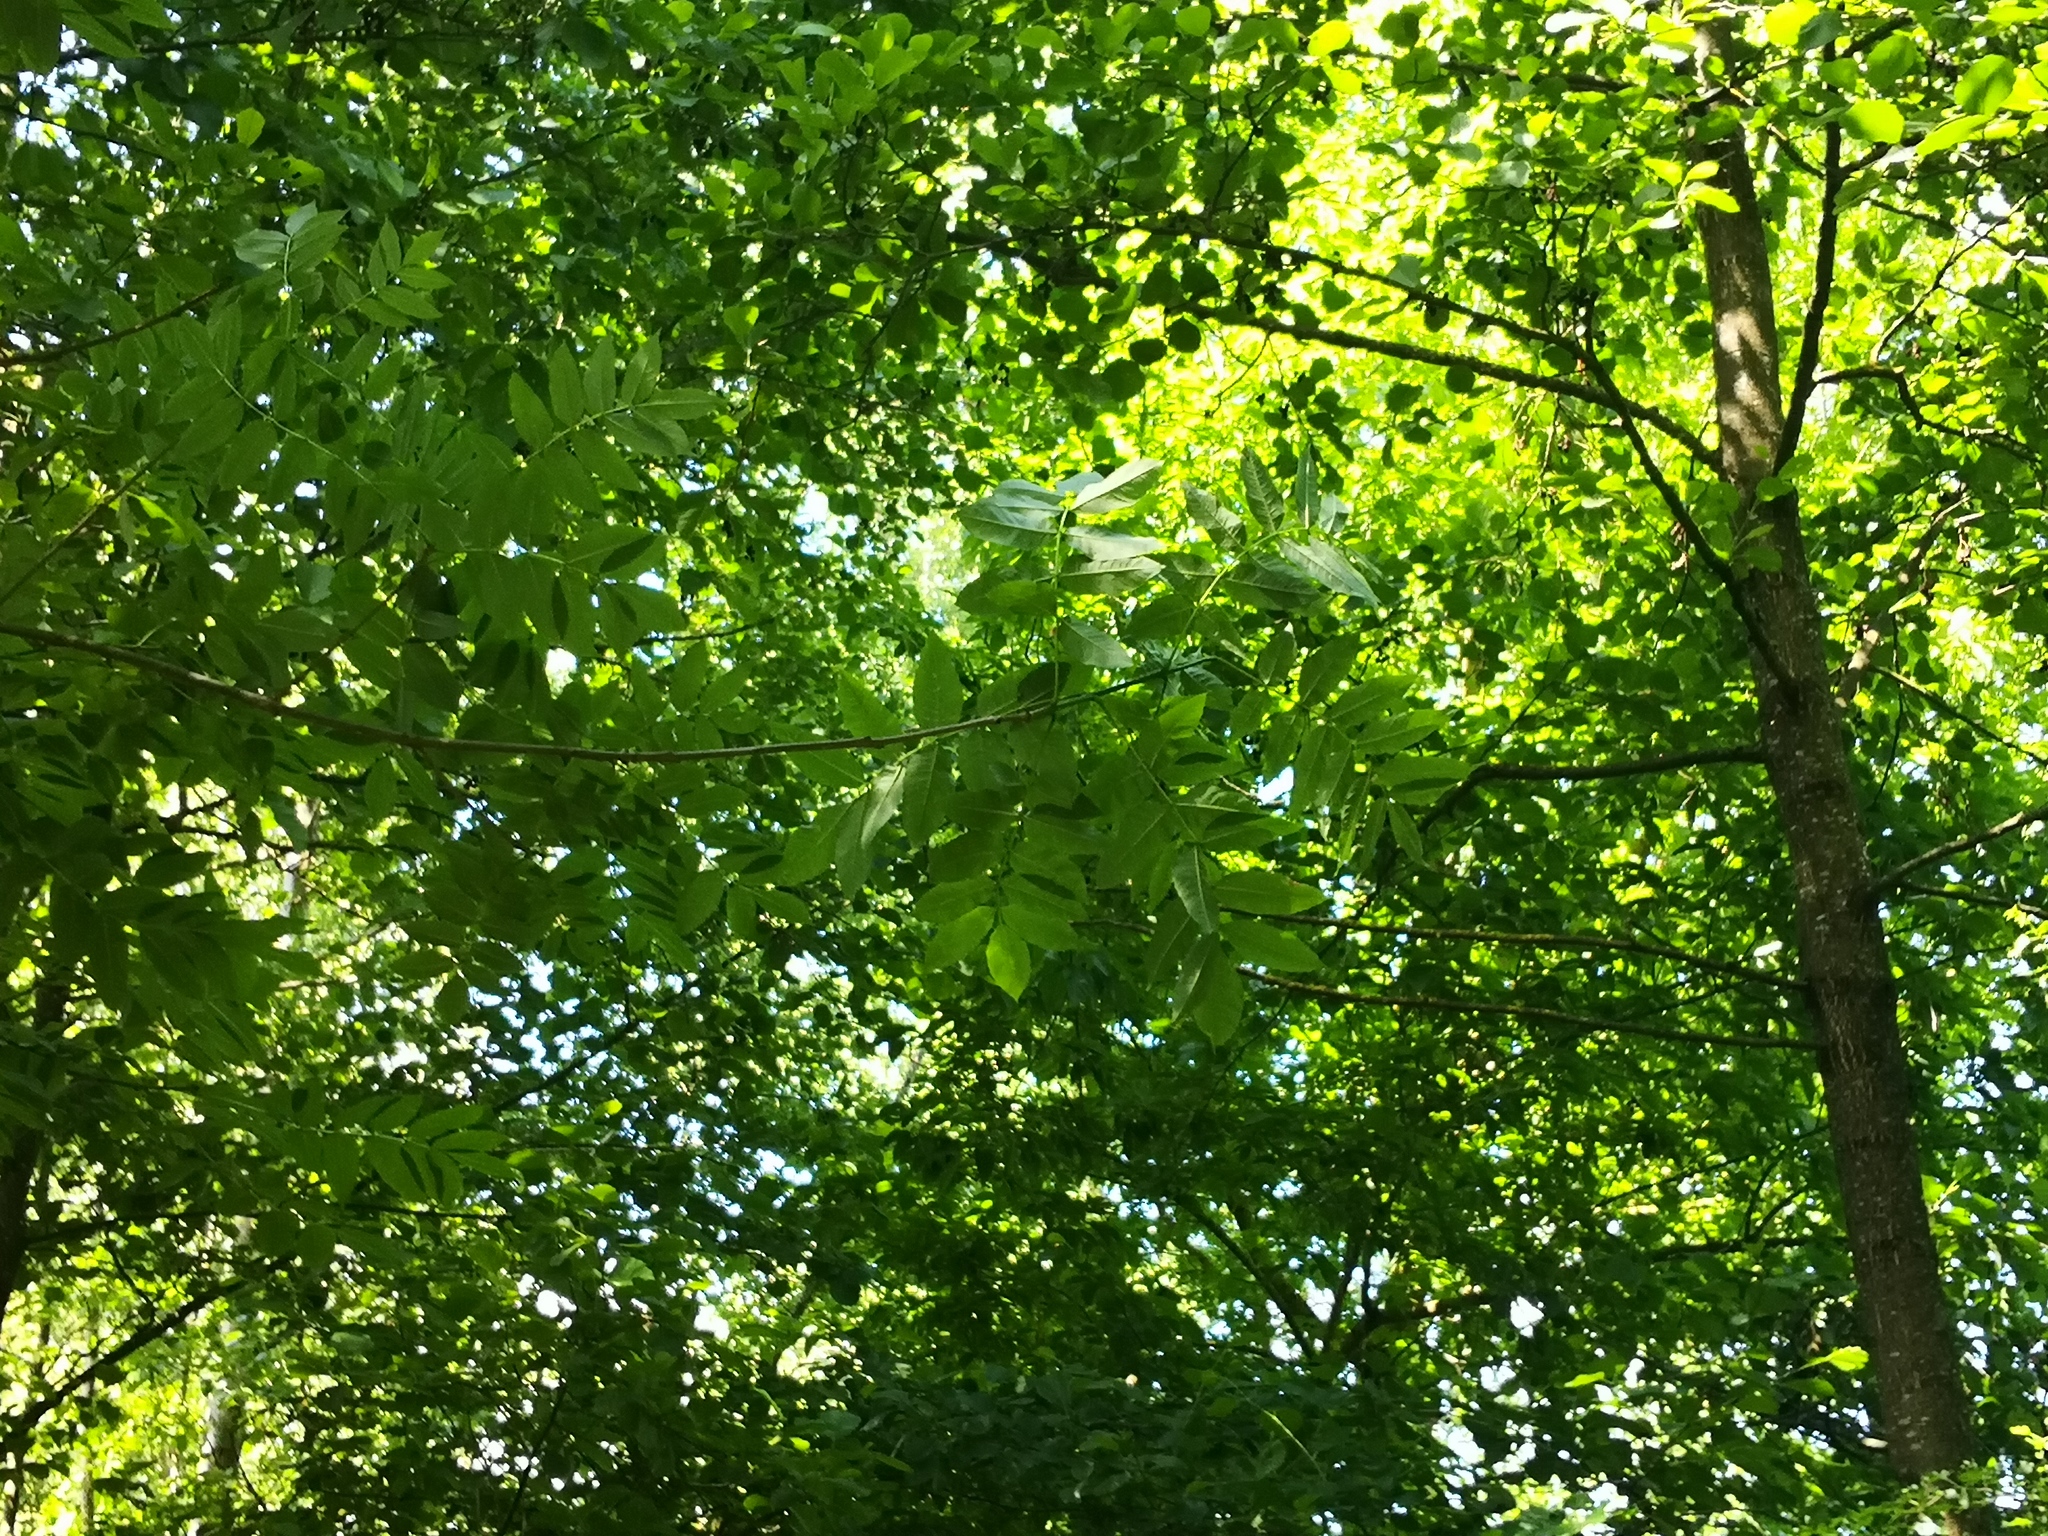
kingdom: Plantae
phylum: Tracheophyta
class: Magnoliopsida
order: Lamiales
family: Oleaceae
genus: Fraxinus
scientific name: Fraxinus excelsior
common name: European ash
